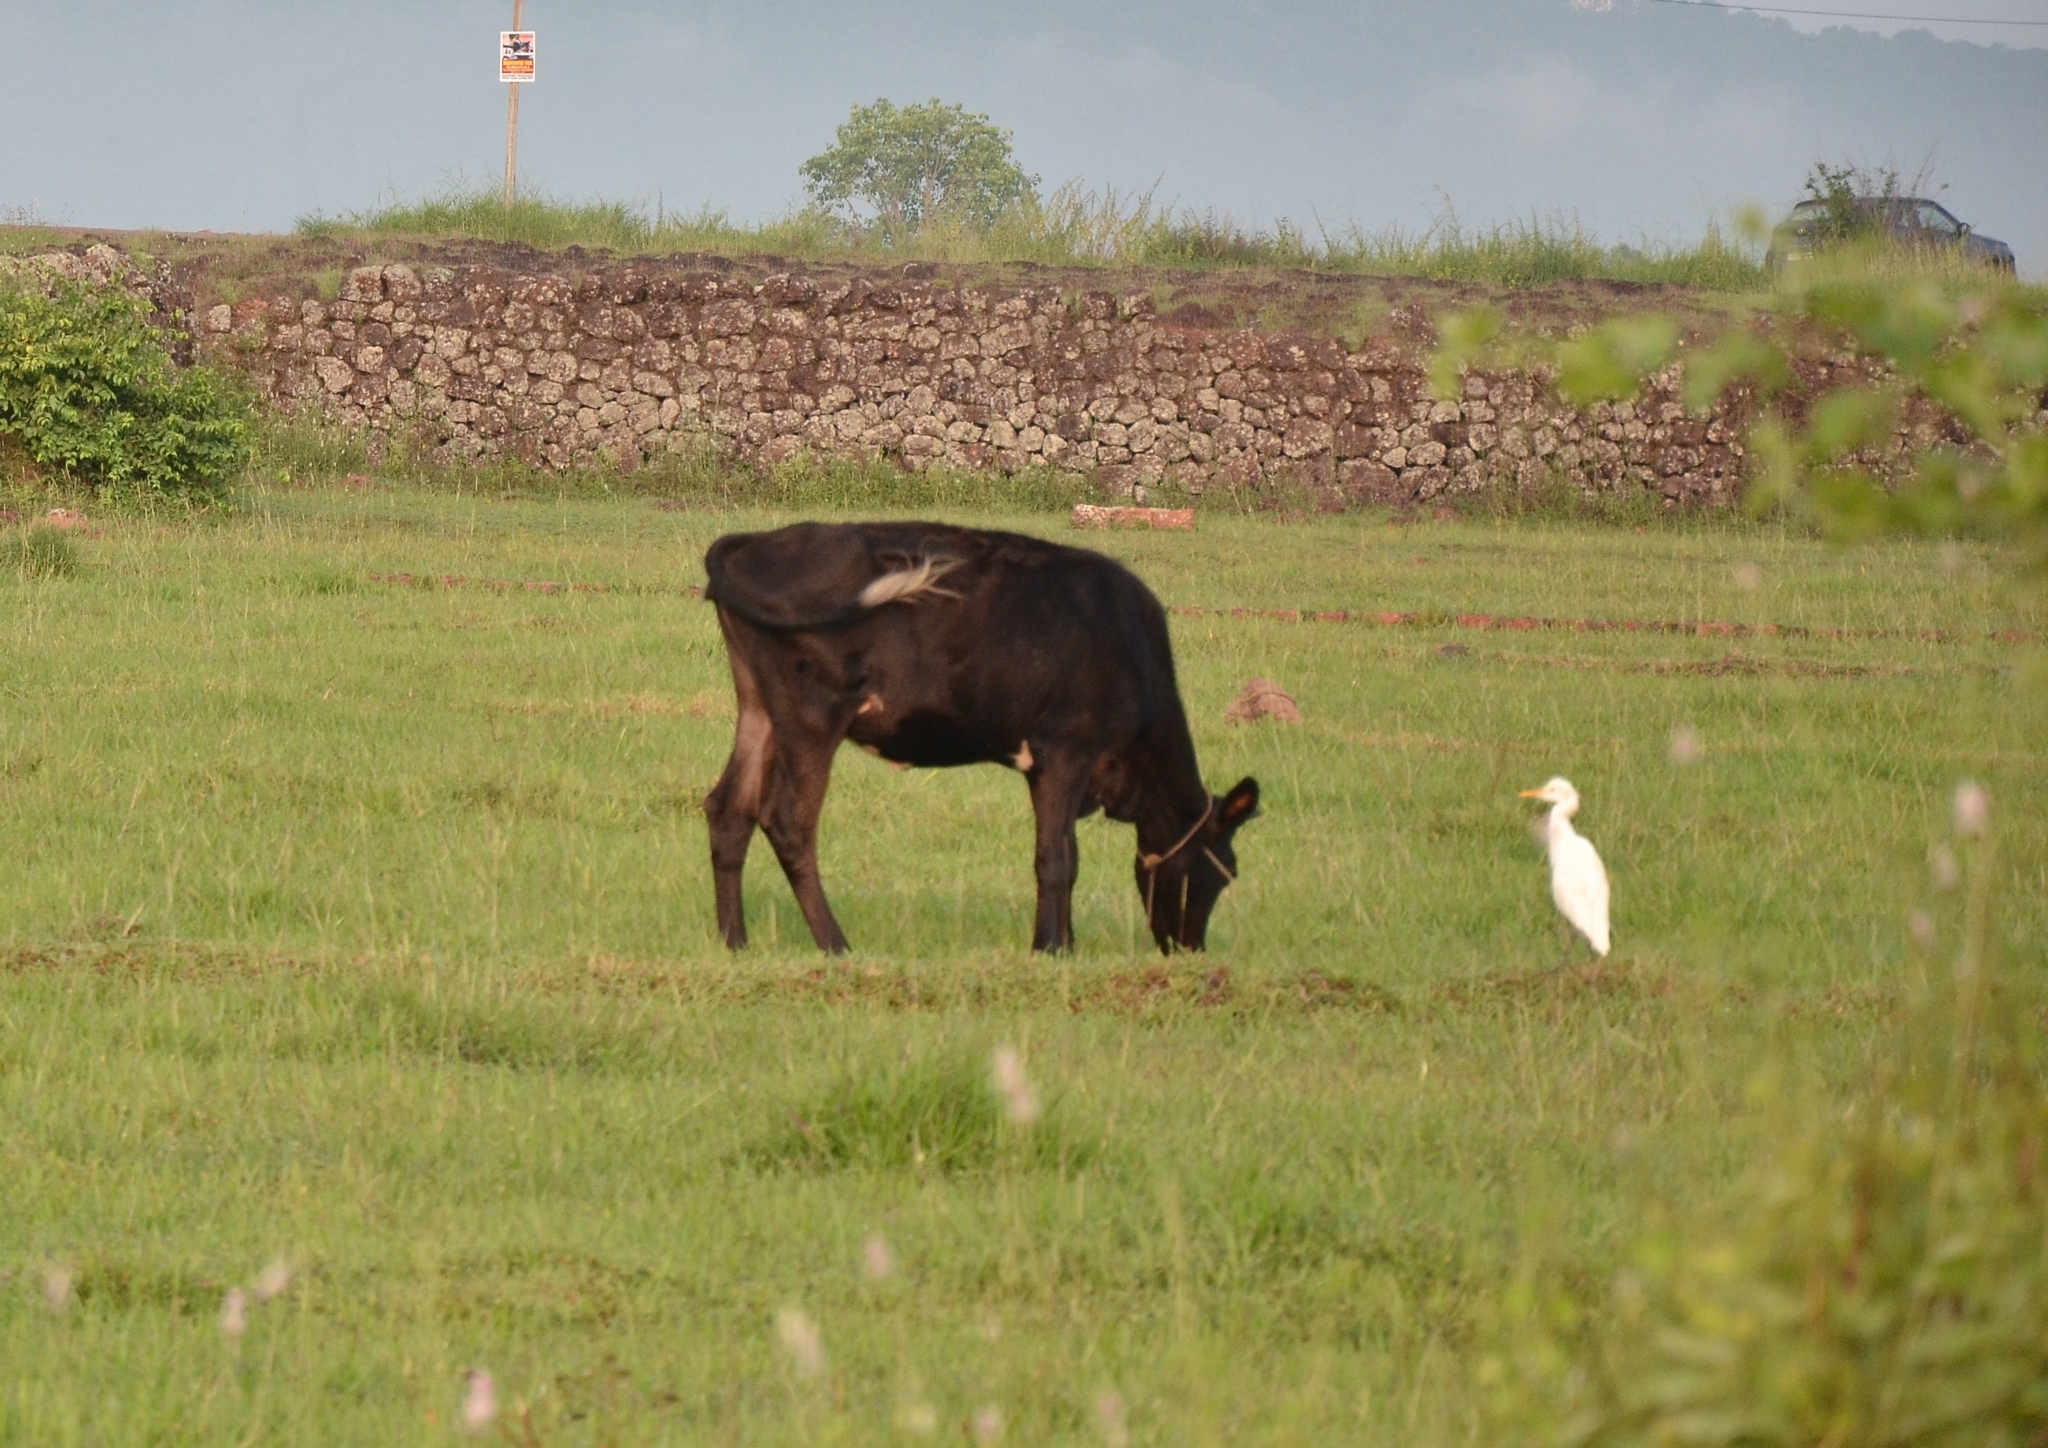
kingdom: Animalia
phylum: Chordata
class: Aves
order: Pelecaniformes
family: Ardeidae
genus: Bubulcus
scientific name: Bubulcus coromandus
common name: Eastern cattle egret
